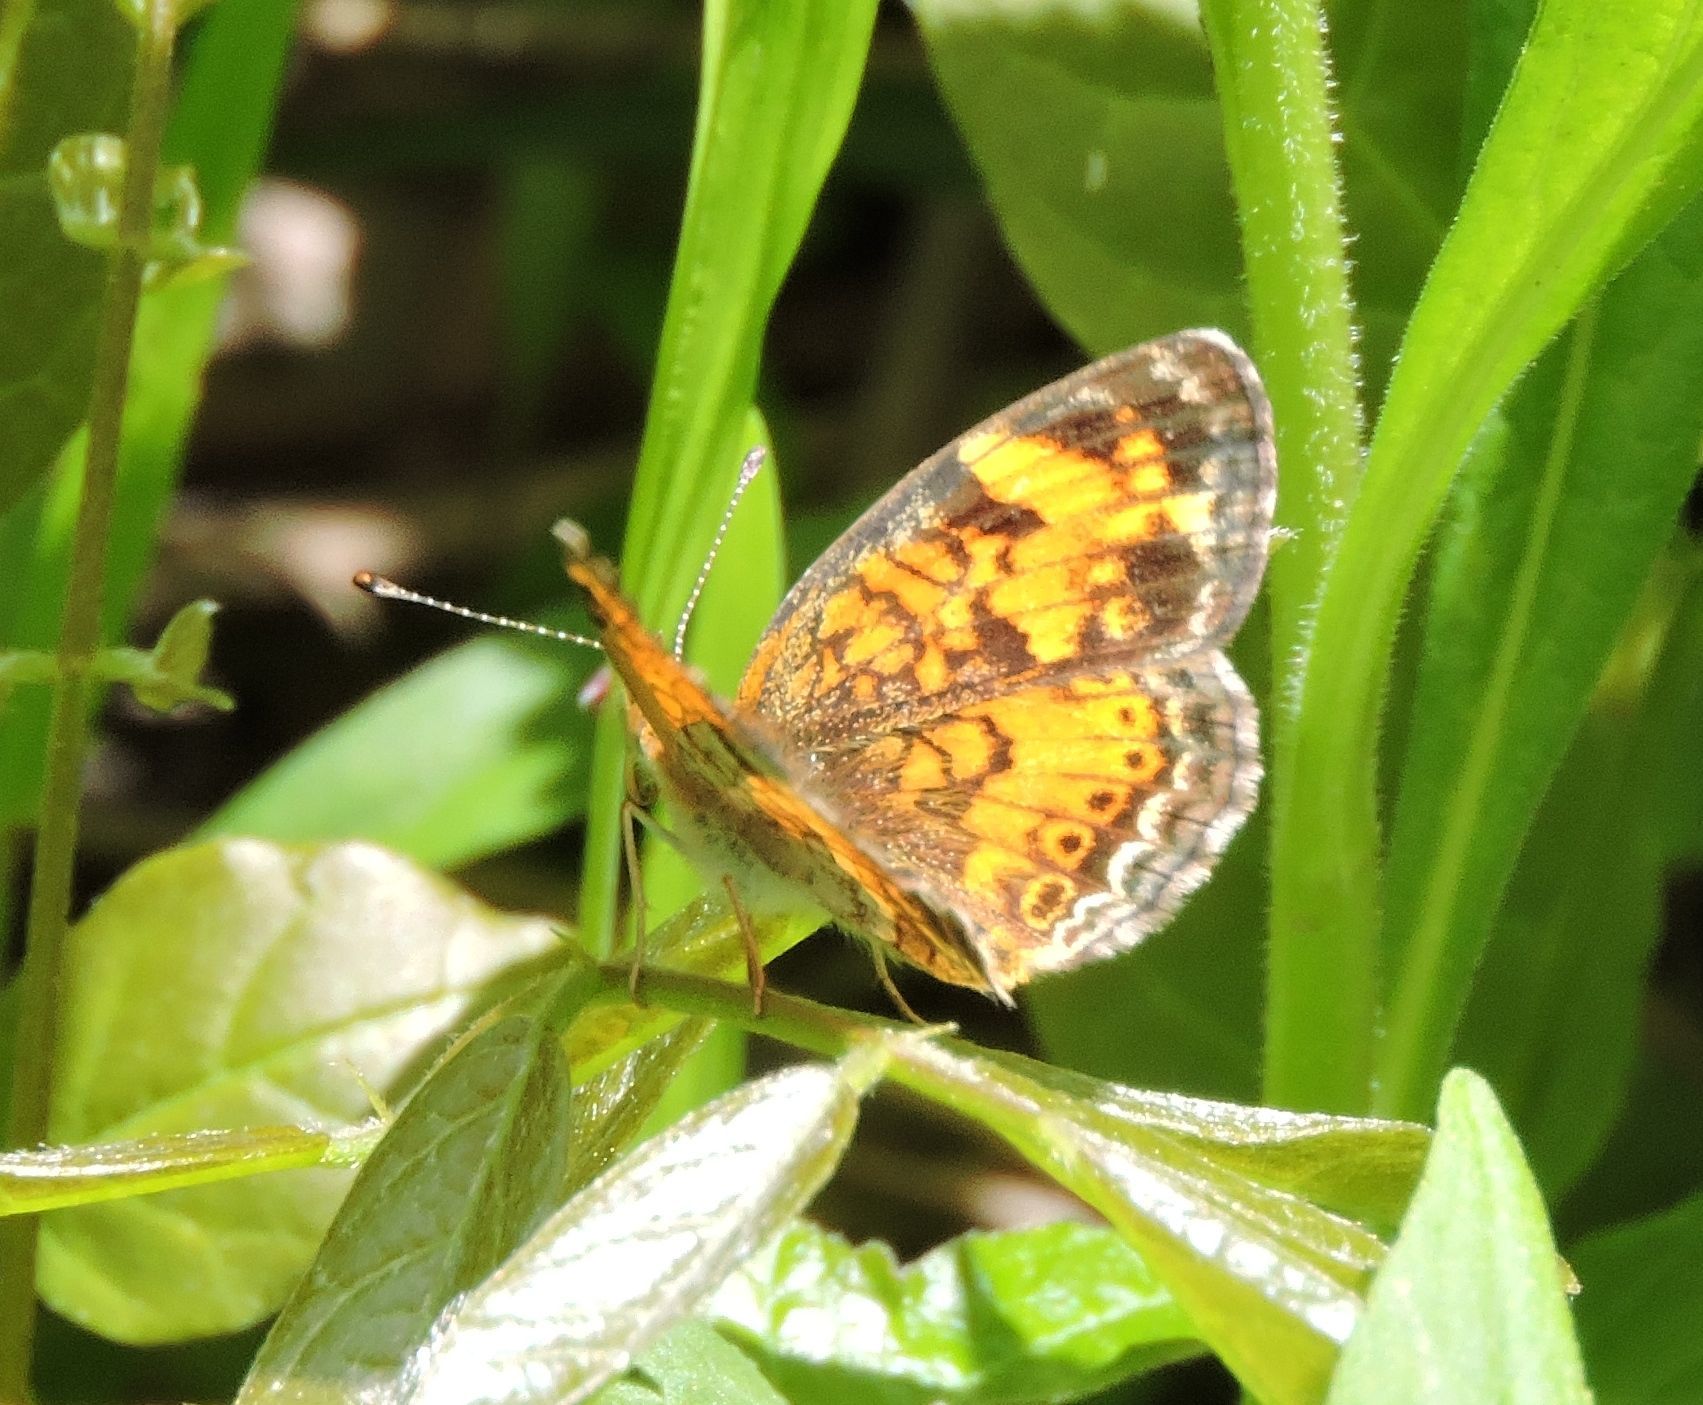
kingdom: Animalia
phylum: Arthropoda
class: Insecta
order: Lepidoptera
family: Nymphalidae
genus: Phyciodes
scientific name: Phyciodes tharos
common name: Pearl crescent
